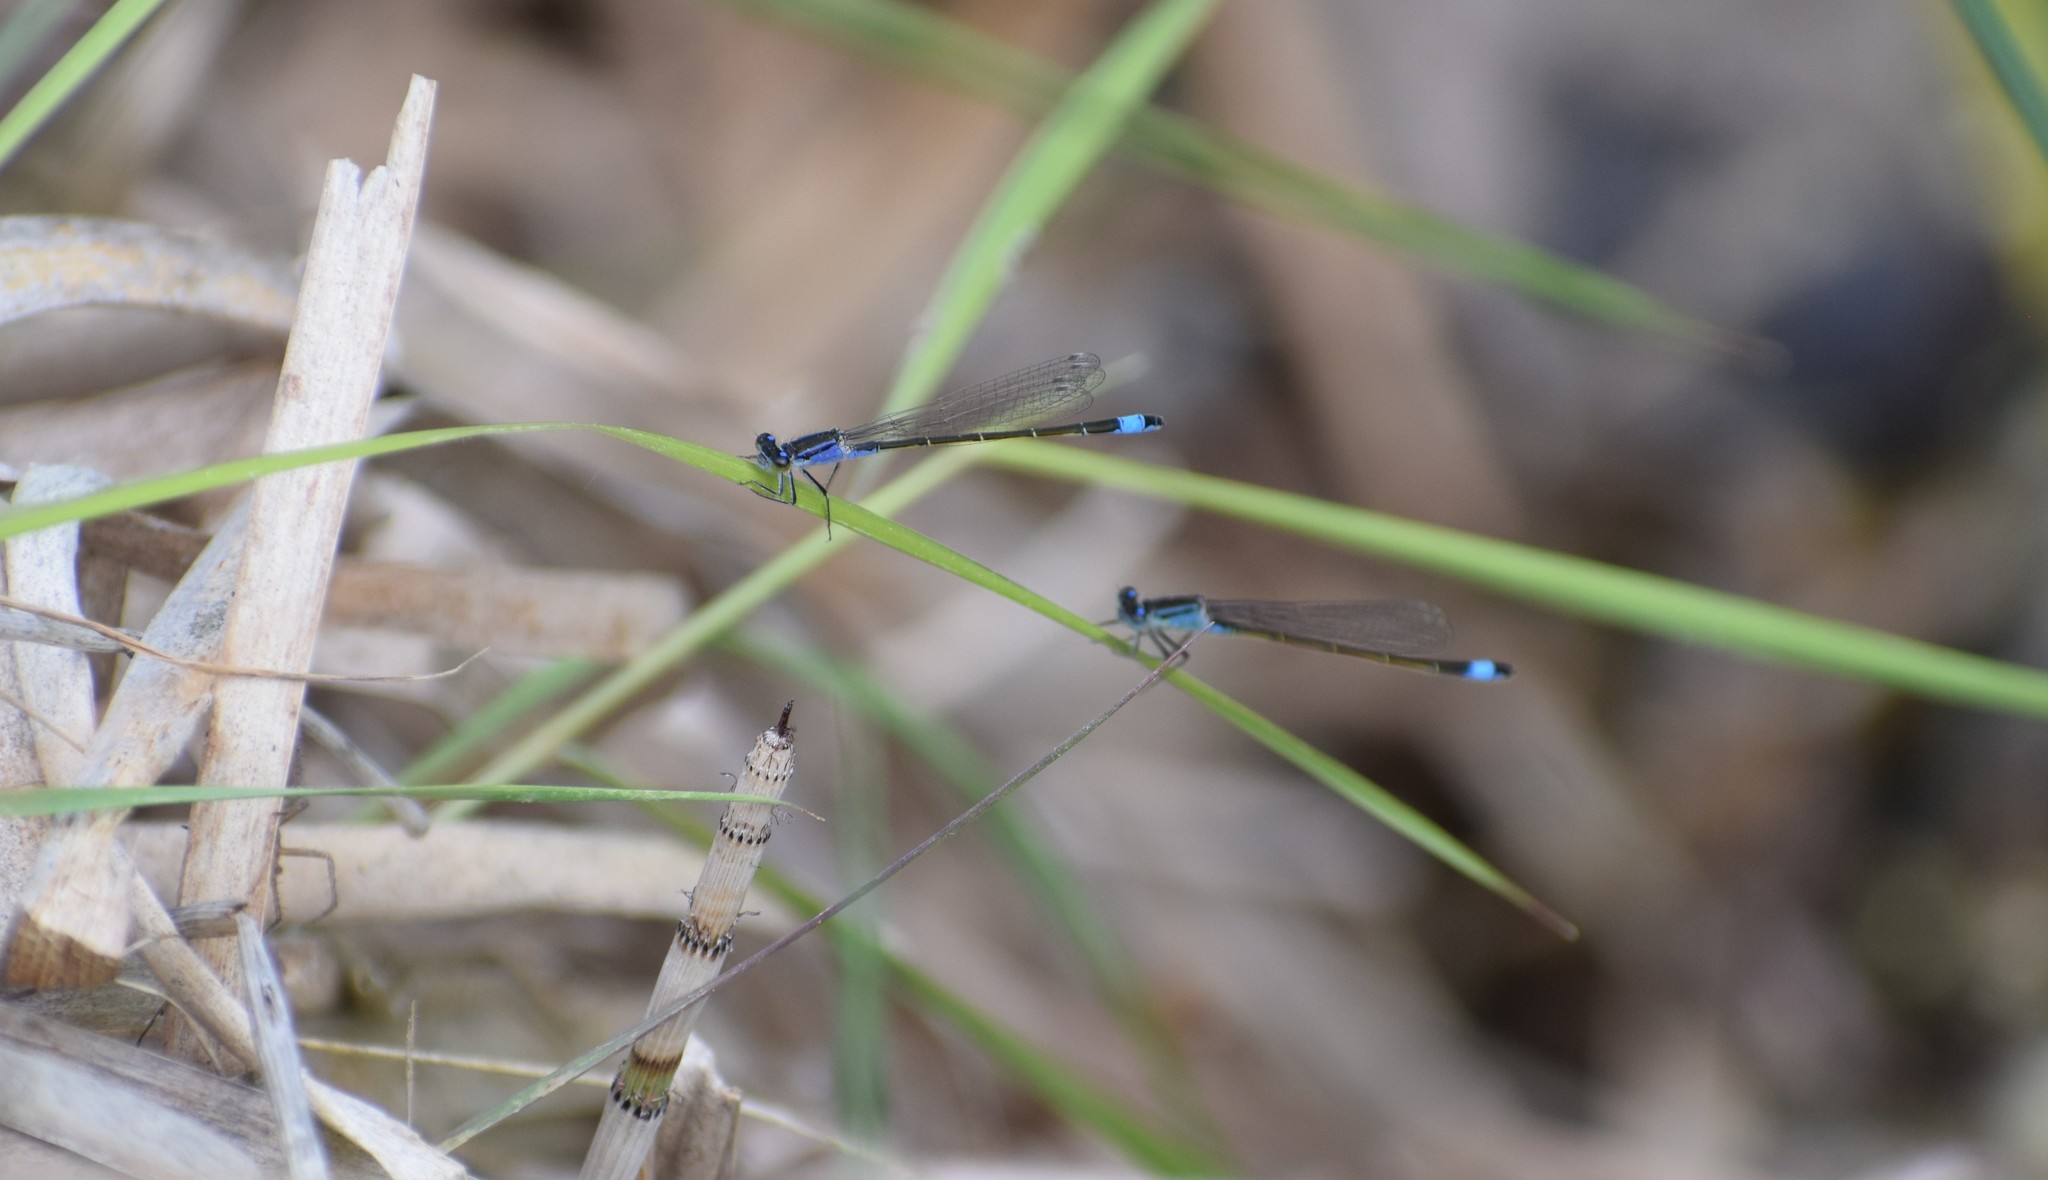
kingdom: Animalia
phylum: Arthropoda
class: Insecta
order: Odonata
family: Coenagrionidae
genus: Ischnura
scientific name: Ischnura elegans
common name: Blue-tailed damselfly
